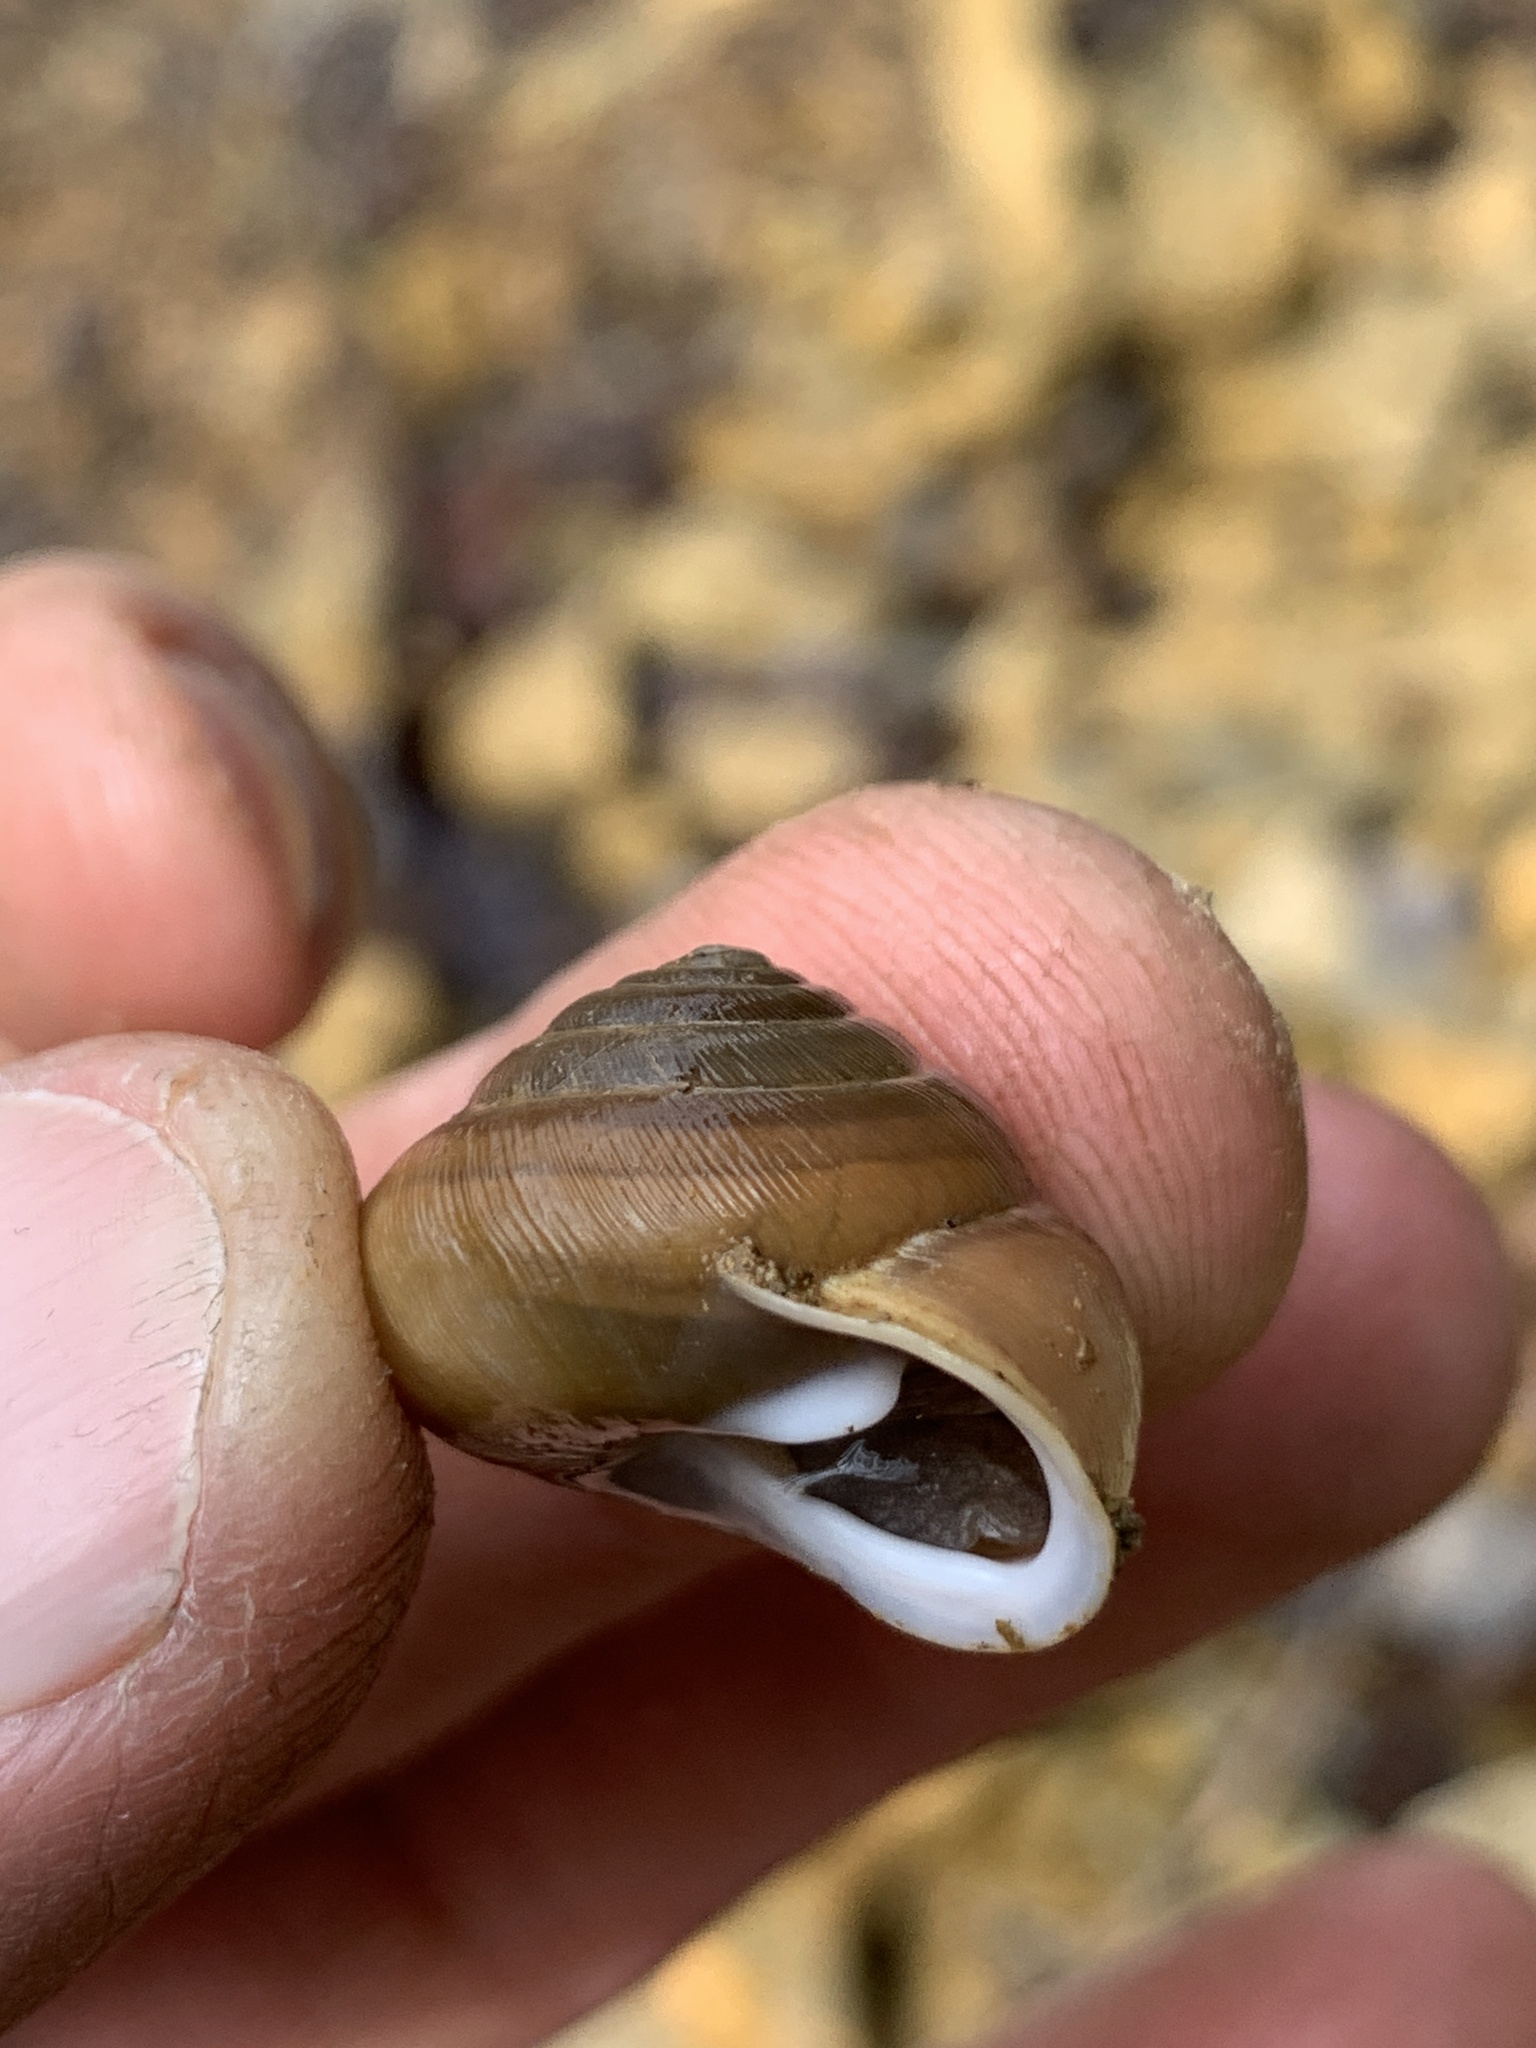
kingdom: Animalia
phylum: Mollusca
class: Gastropoda
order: Stylommatophora
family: Polygyridae
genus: Mesodon
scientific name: Mesodon elevatus
